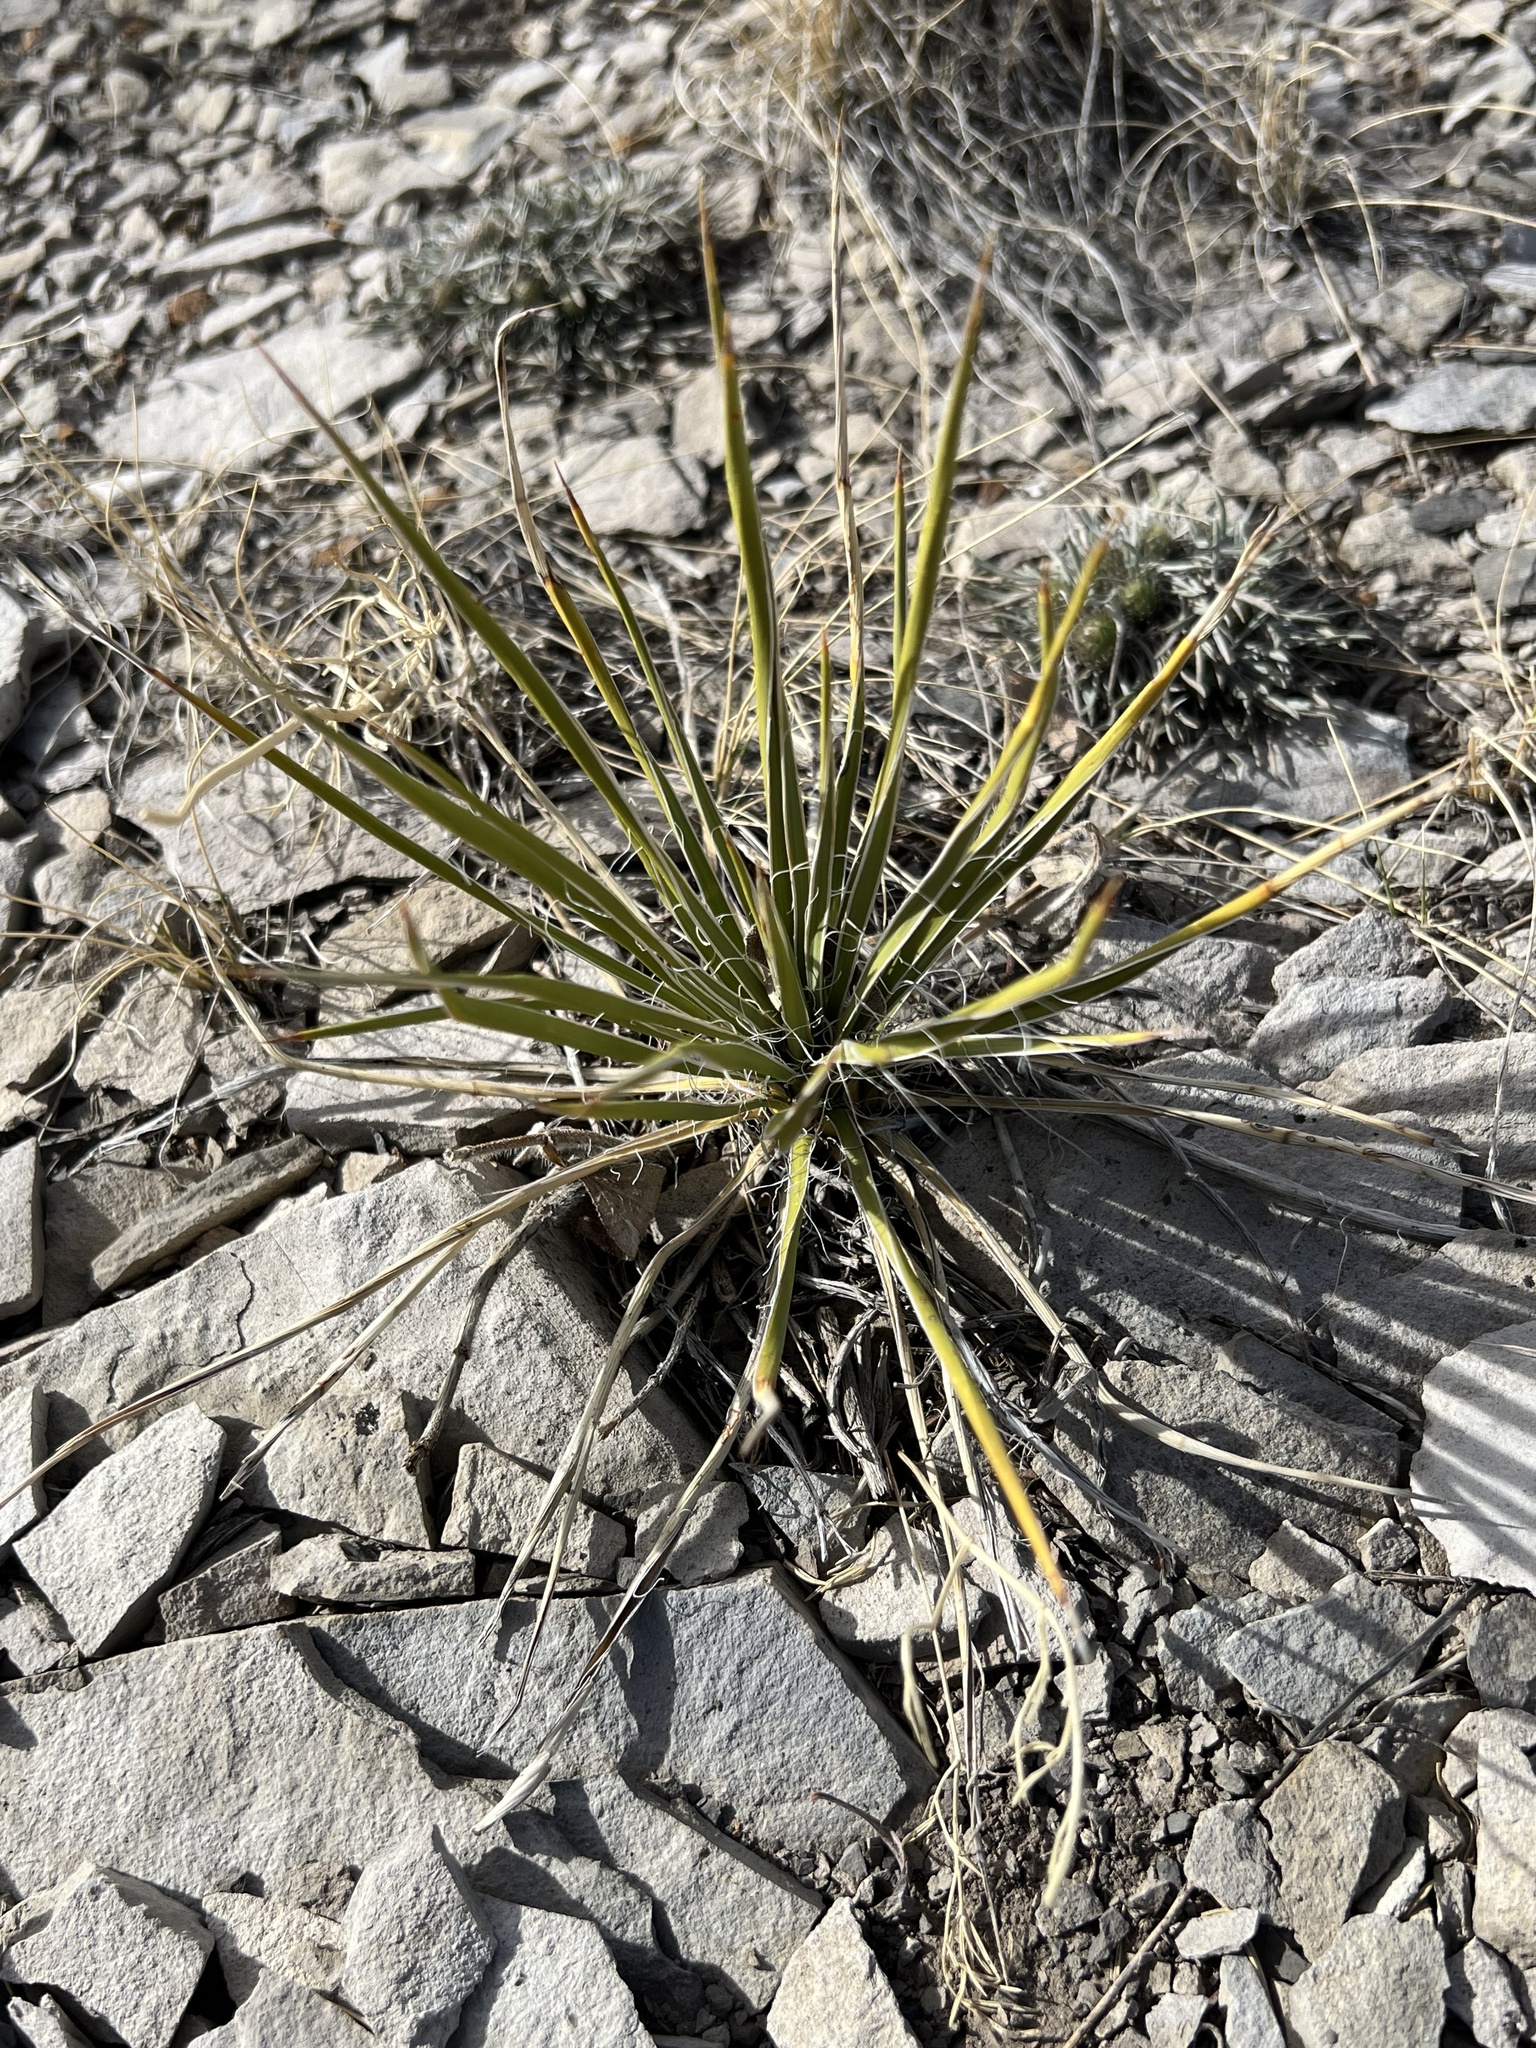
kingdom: Plantae
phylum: Tracheophyta
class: Liliopsida
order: Asparagales
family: Asparagaceae
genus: Yucca
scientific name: Yucca glauca
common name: Great plains yucca
